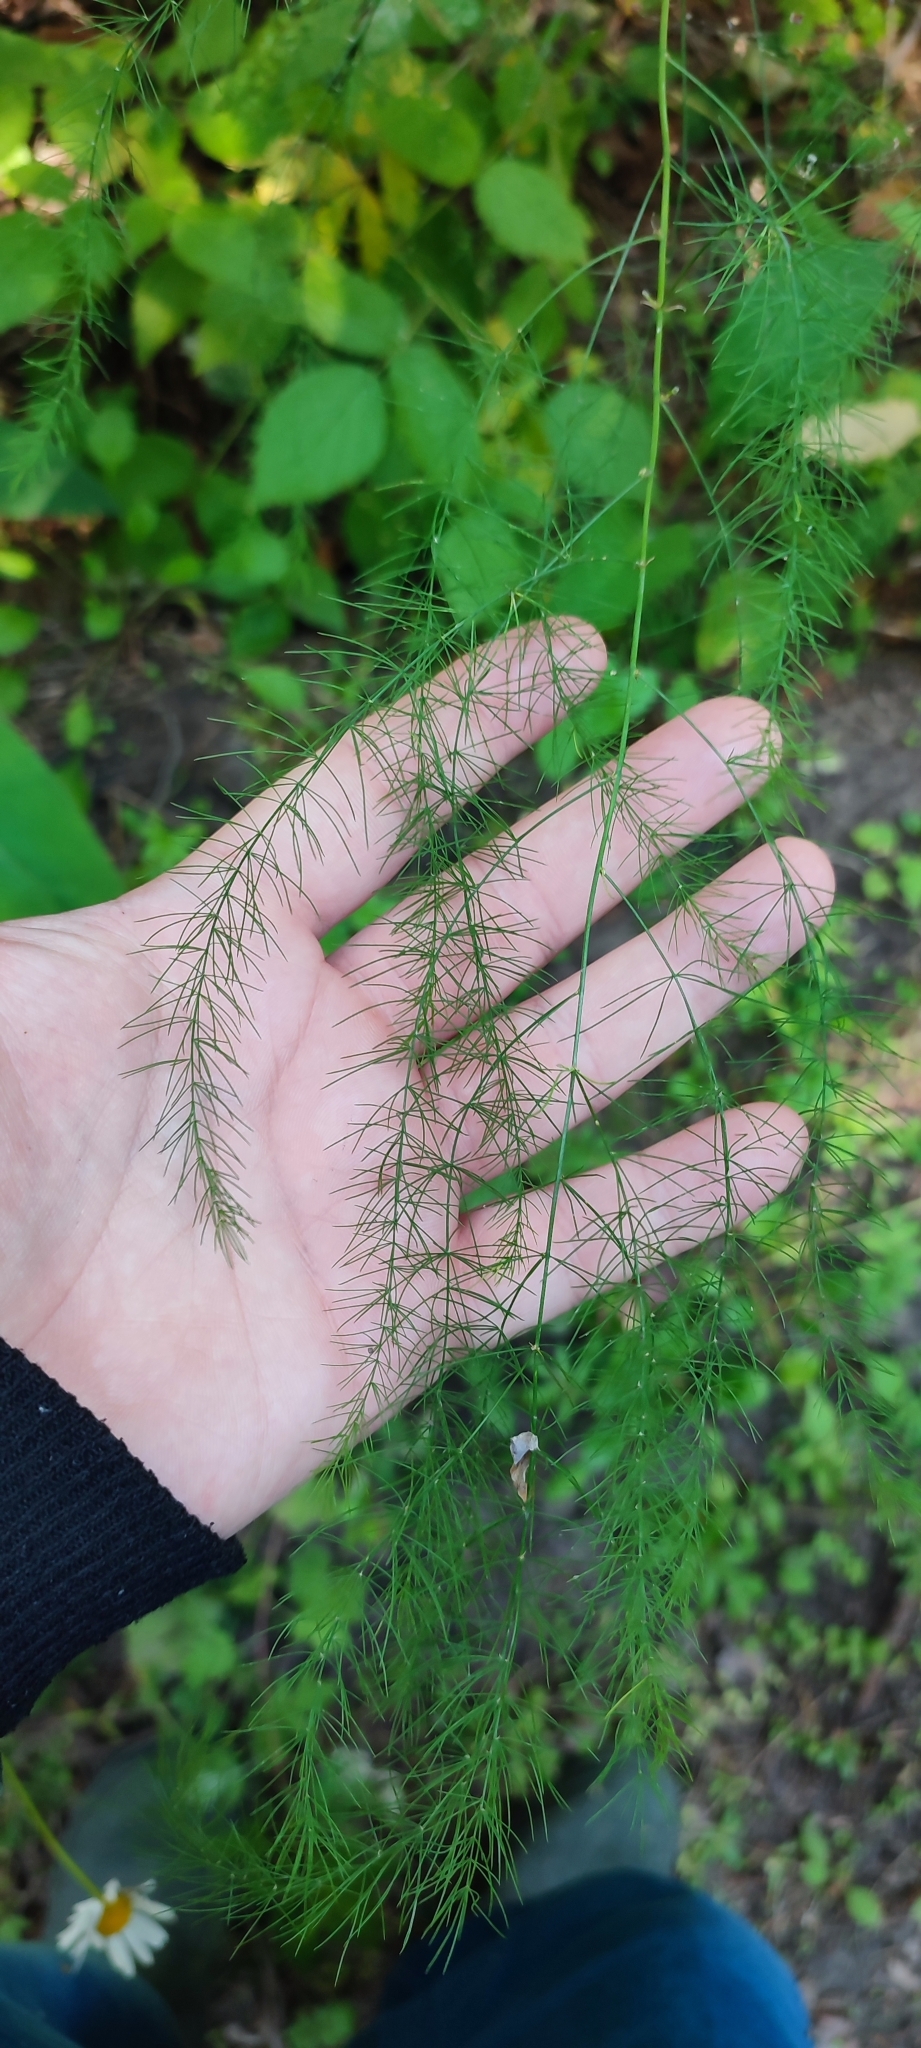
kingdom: Plantae
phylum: Tracheophyta
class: Liliopsida
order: Asparagales
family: Asparagaceae
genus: Asparagus
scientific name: Asparagus officinalis
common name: Garden asparagus
